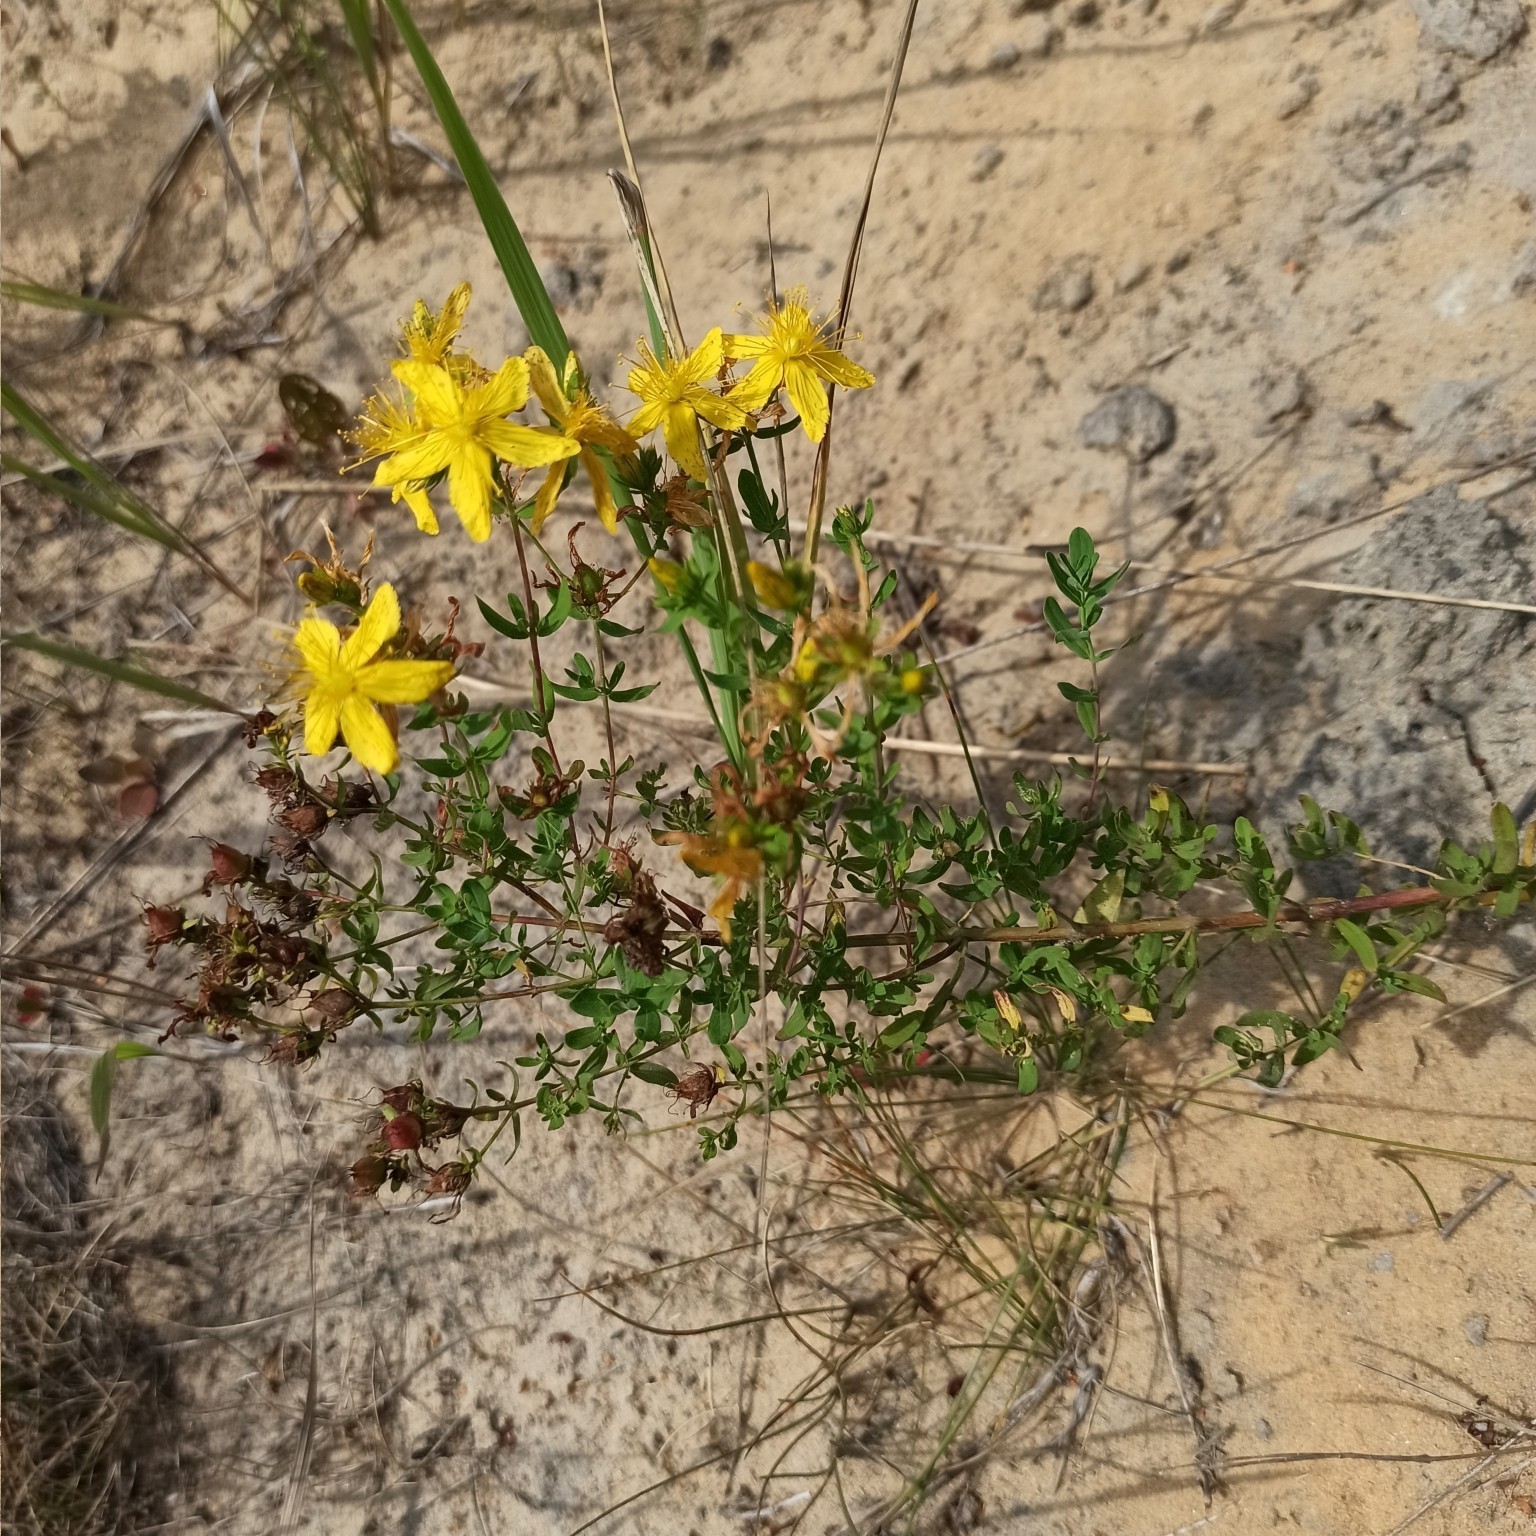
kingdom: Plantae
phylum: Tracheophyta
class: Magnoliopsida
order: Malpighiales
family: Hypericaceae
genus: Hypericum
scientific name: Hypericum perforatum
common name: Common st. johnswort
